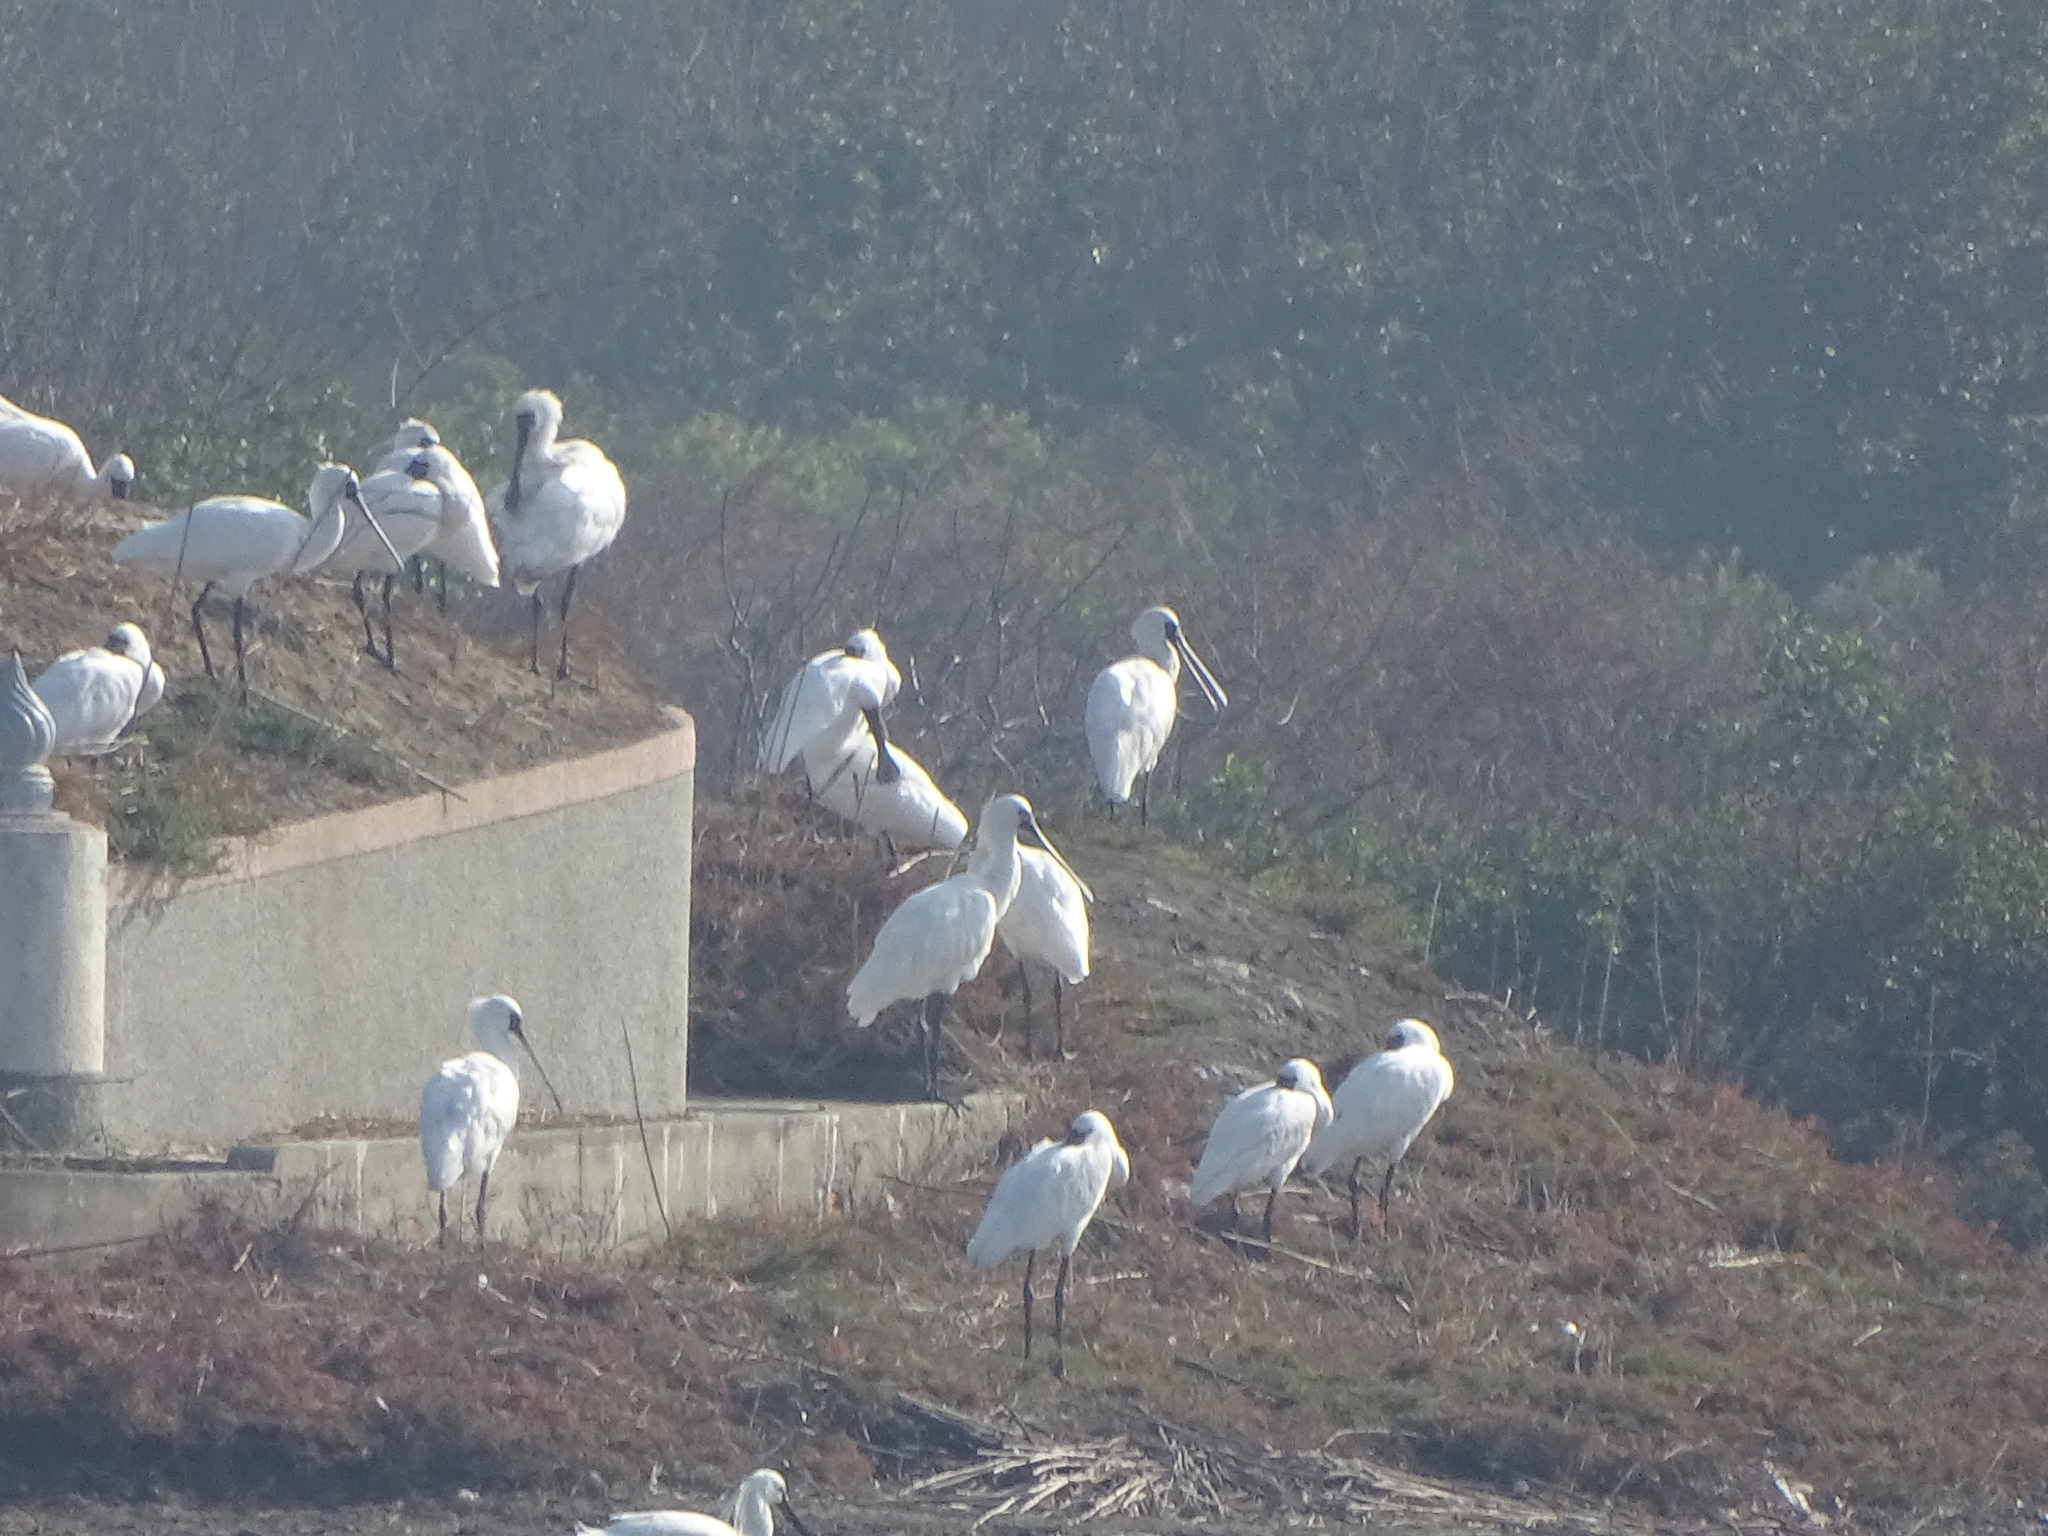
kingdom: Animalia
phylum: Chordata
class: Aves
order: Pelecaniformes
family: Threskiornithidae
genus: Platalea
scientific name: Platalea minor
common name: Black-faced spoonbill
